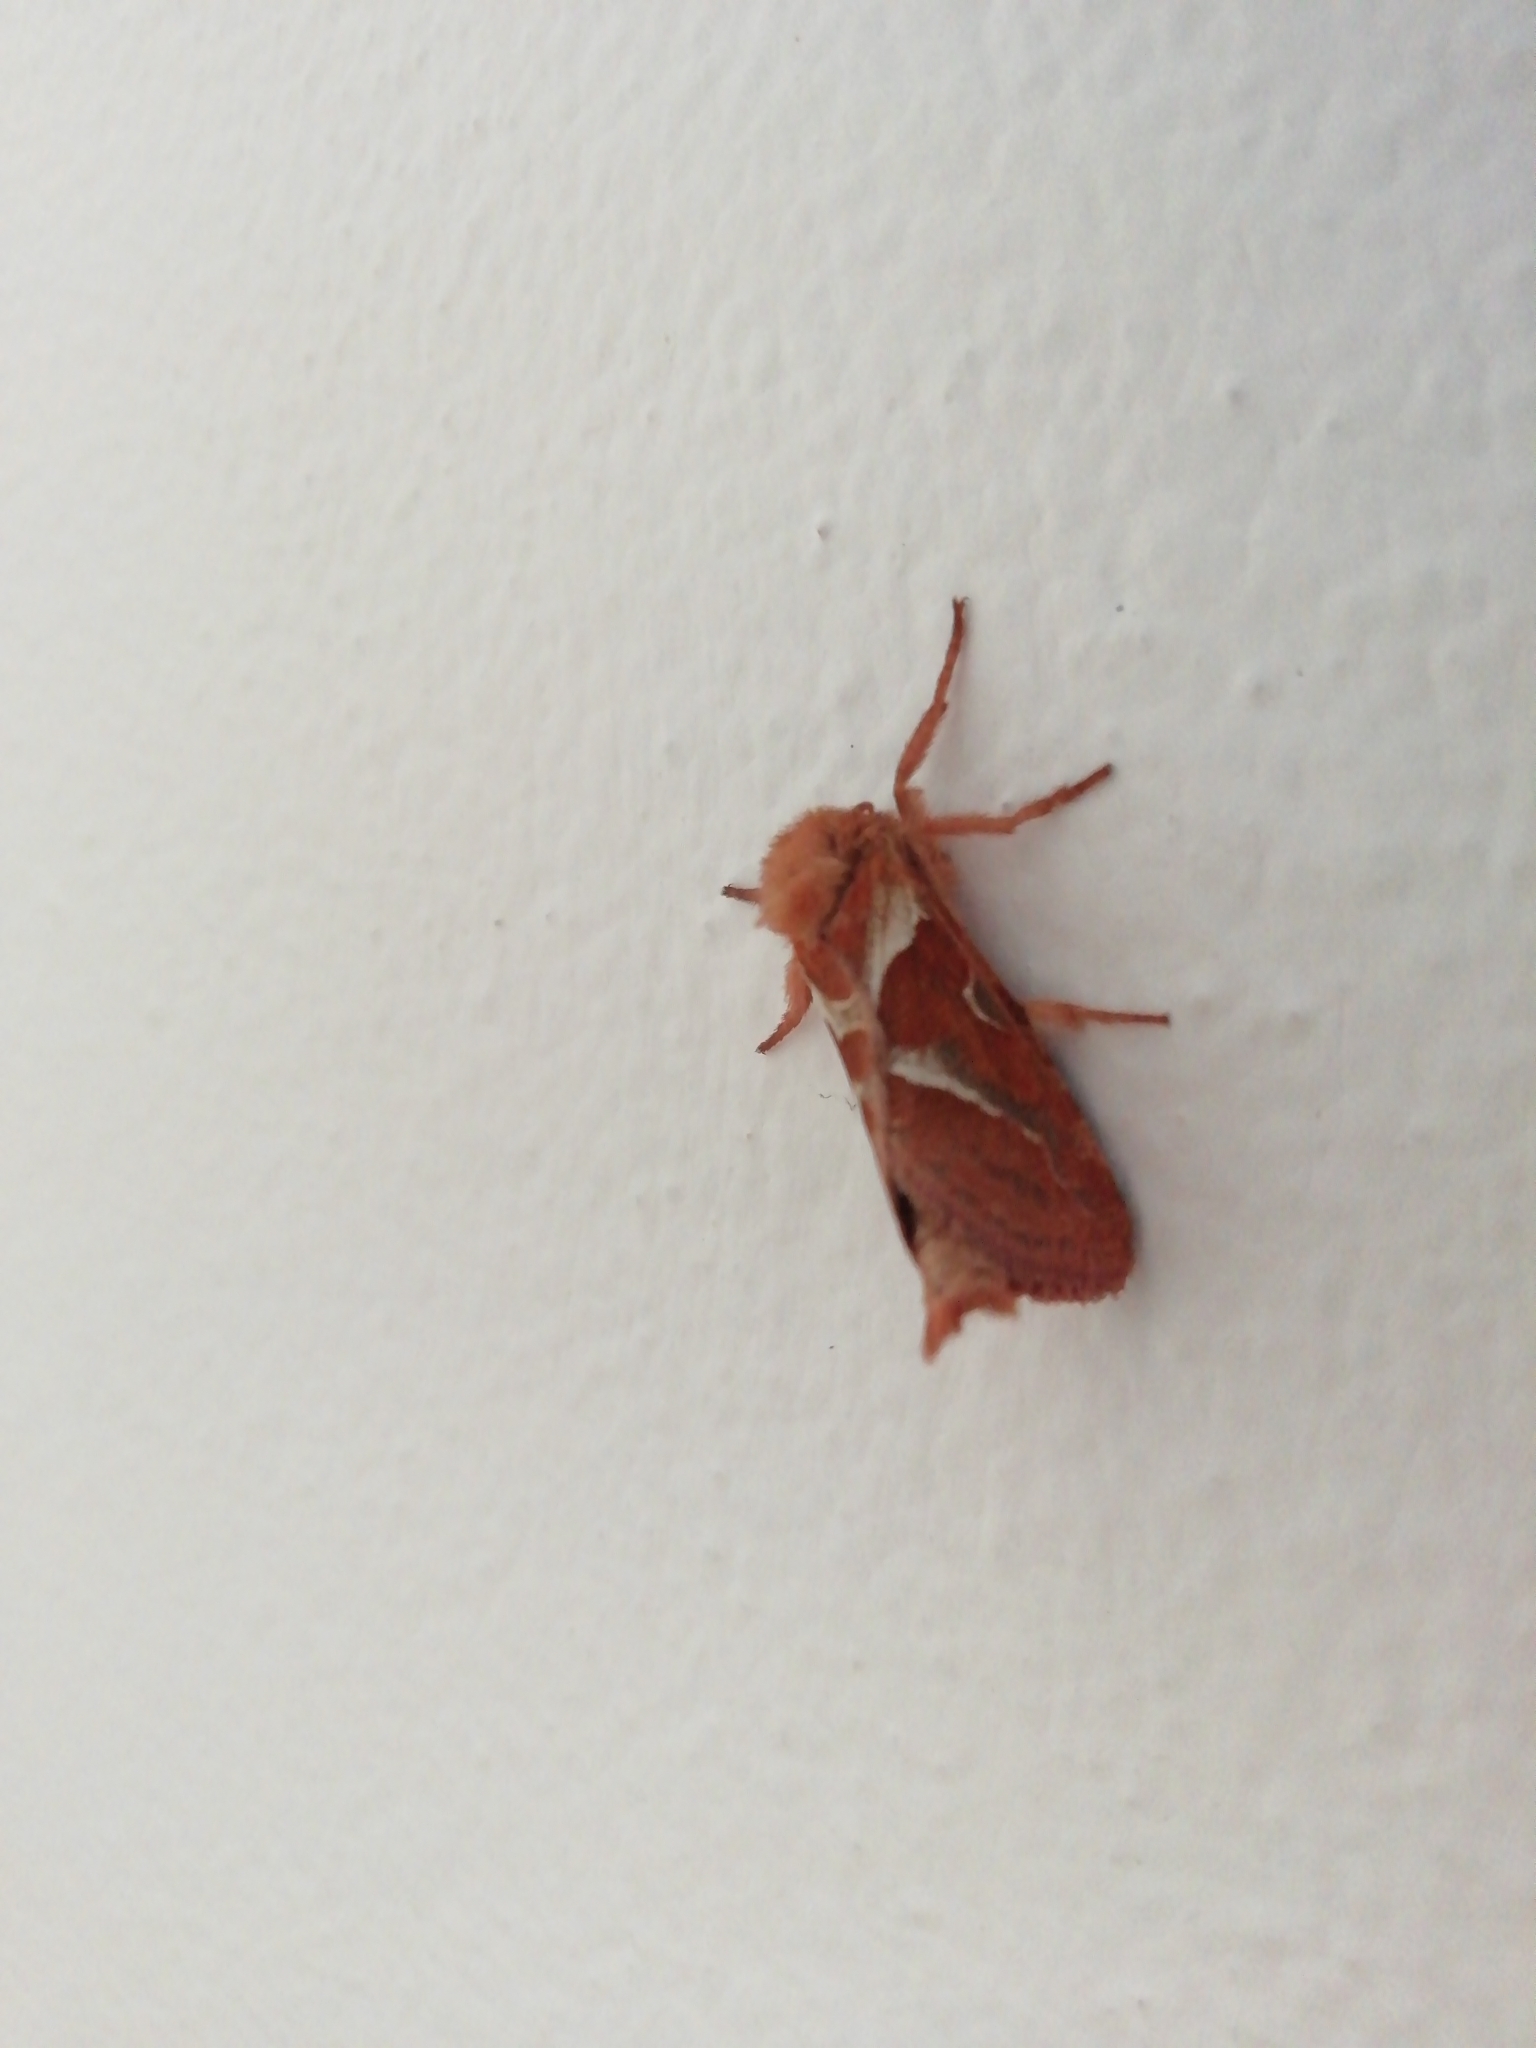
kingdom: Animalia
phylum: Arthropoda
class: Insecta
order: Lepidoptera
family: Hepialidae
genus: Triodia
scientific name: Triodia sylvina
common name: Orange swift
